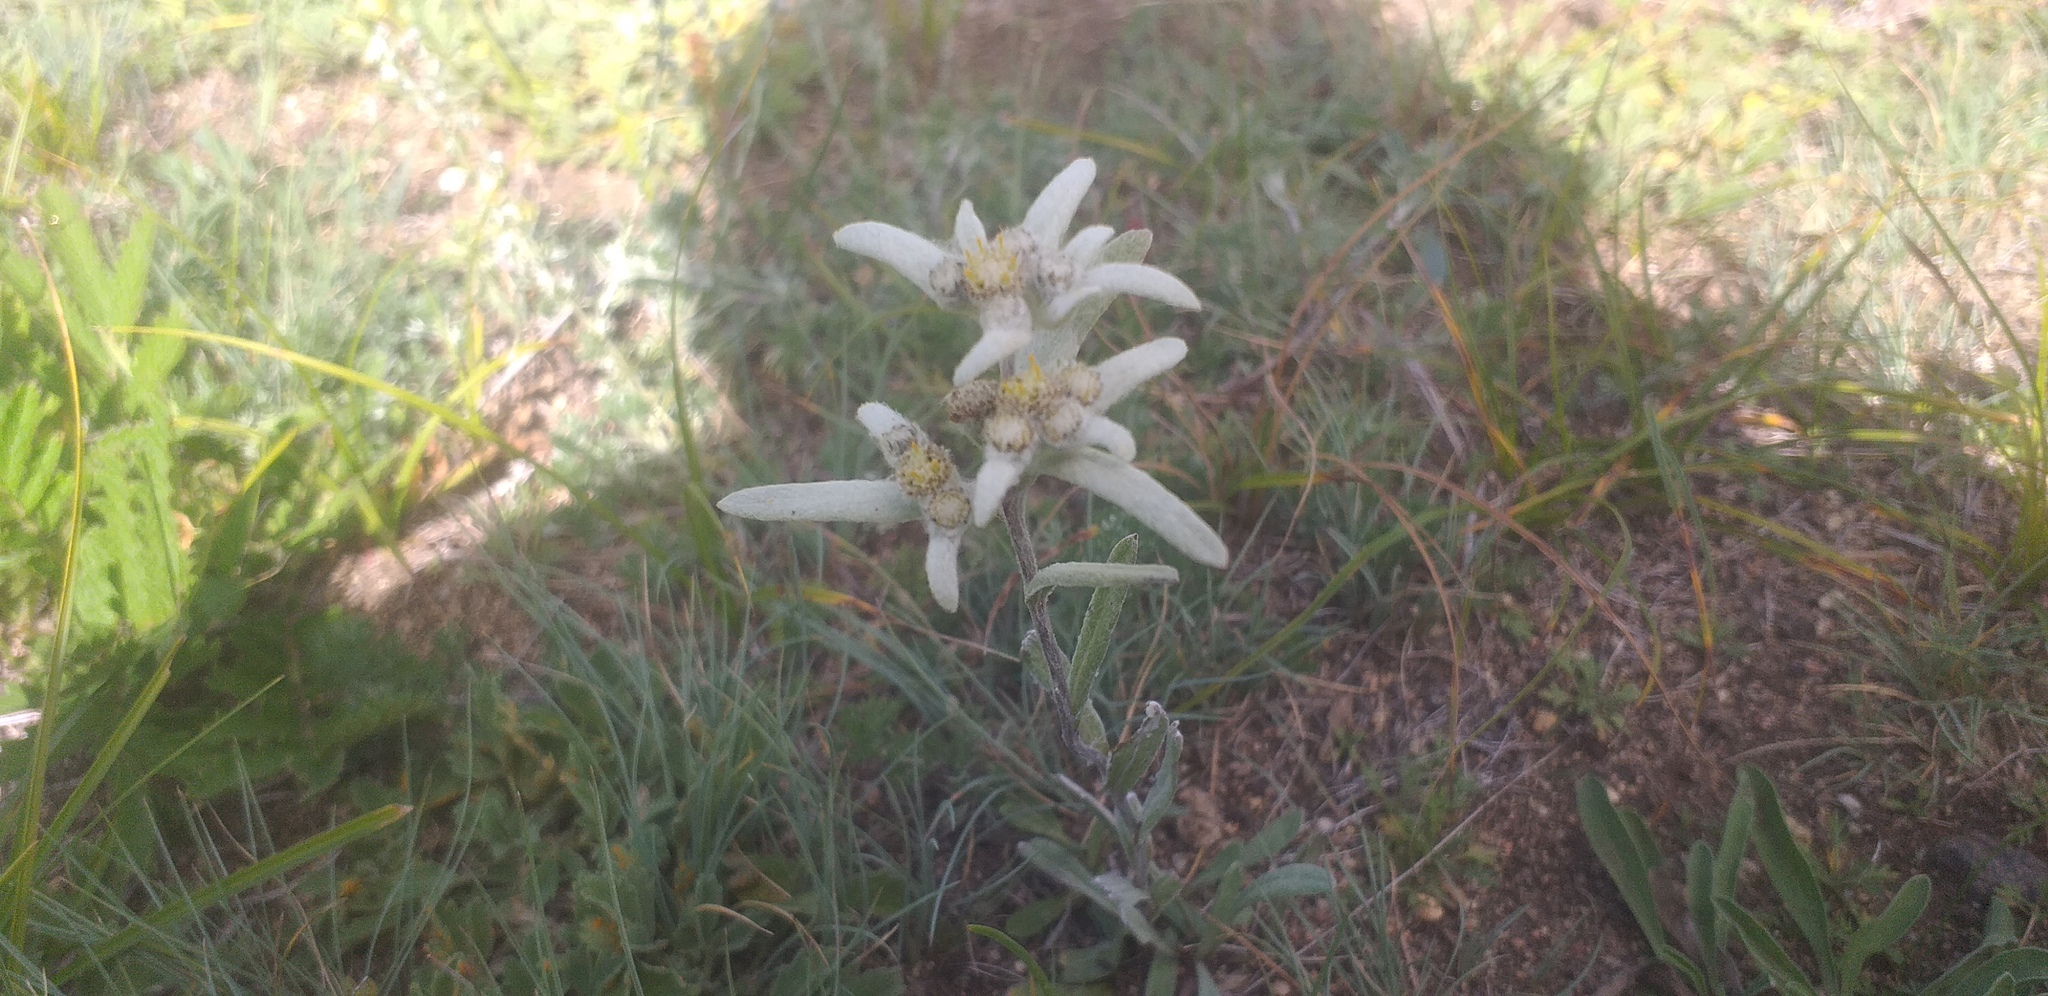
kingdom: Plantae
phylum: Tracheophyta
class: Magnoliopsida
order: Asterales
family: Asteraceae
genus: Leontopodium
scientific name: Leontopodium leontopodinum
